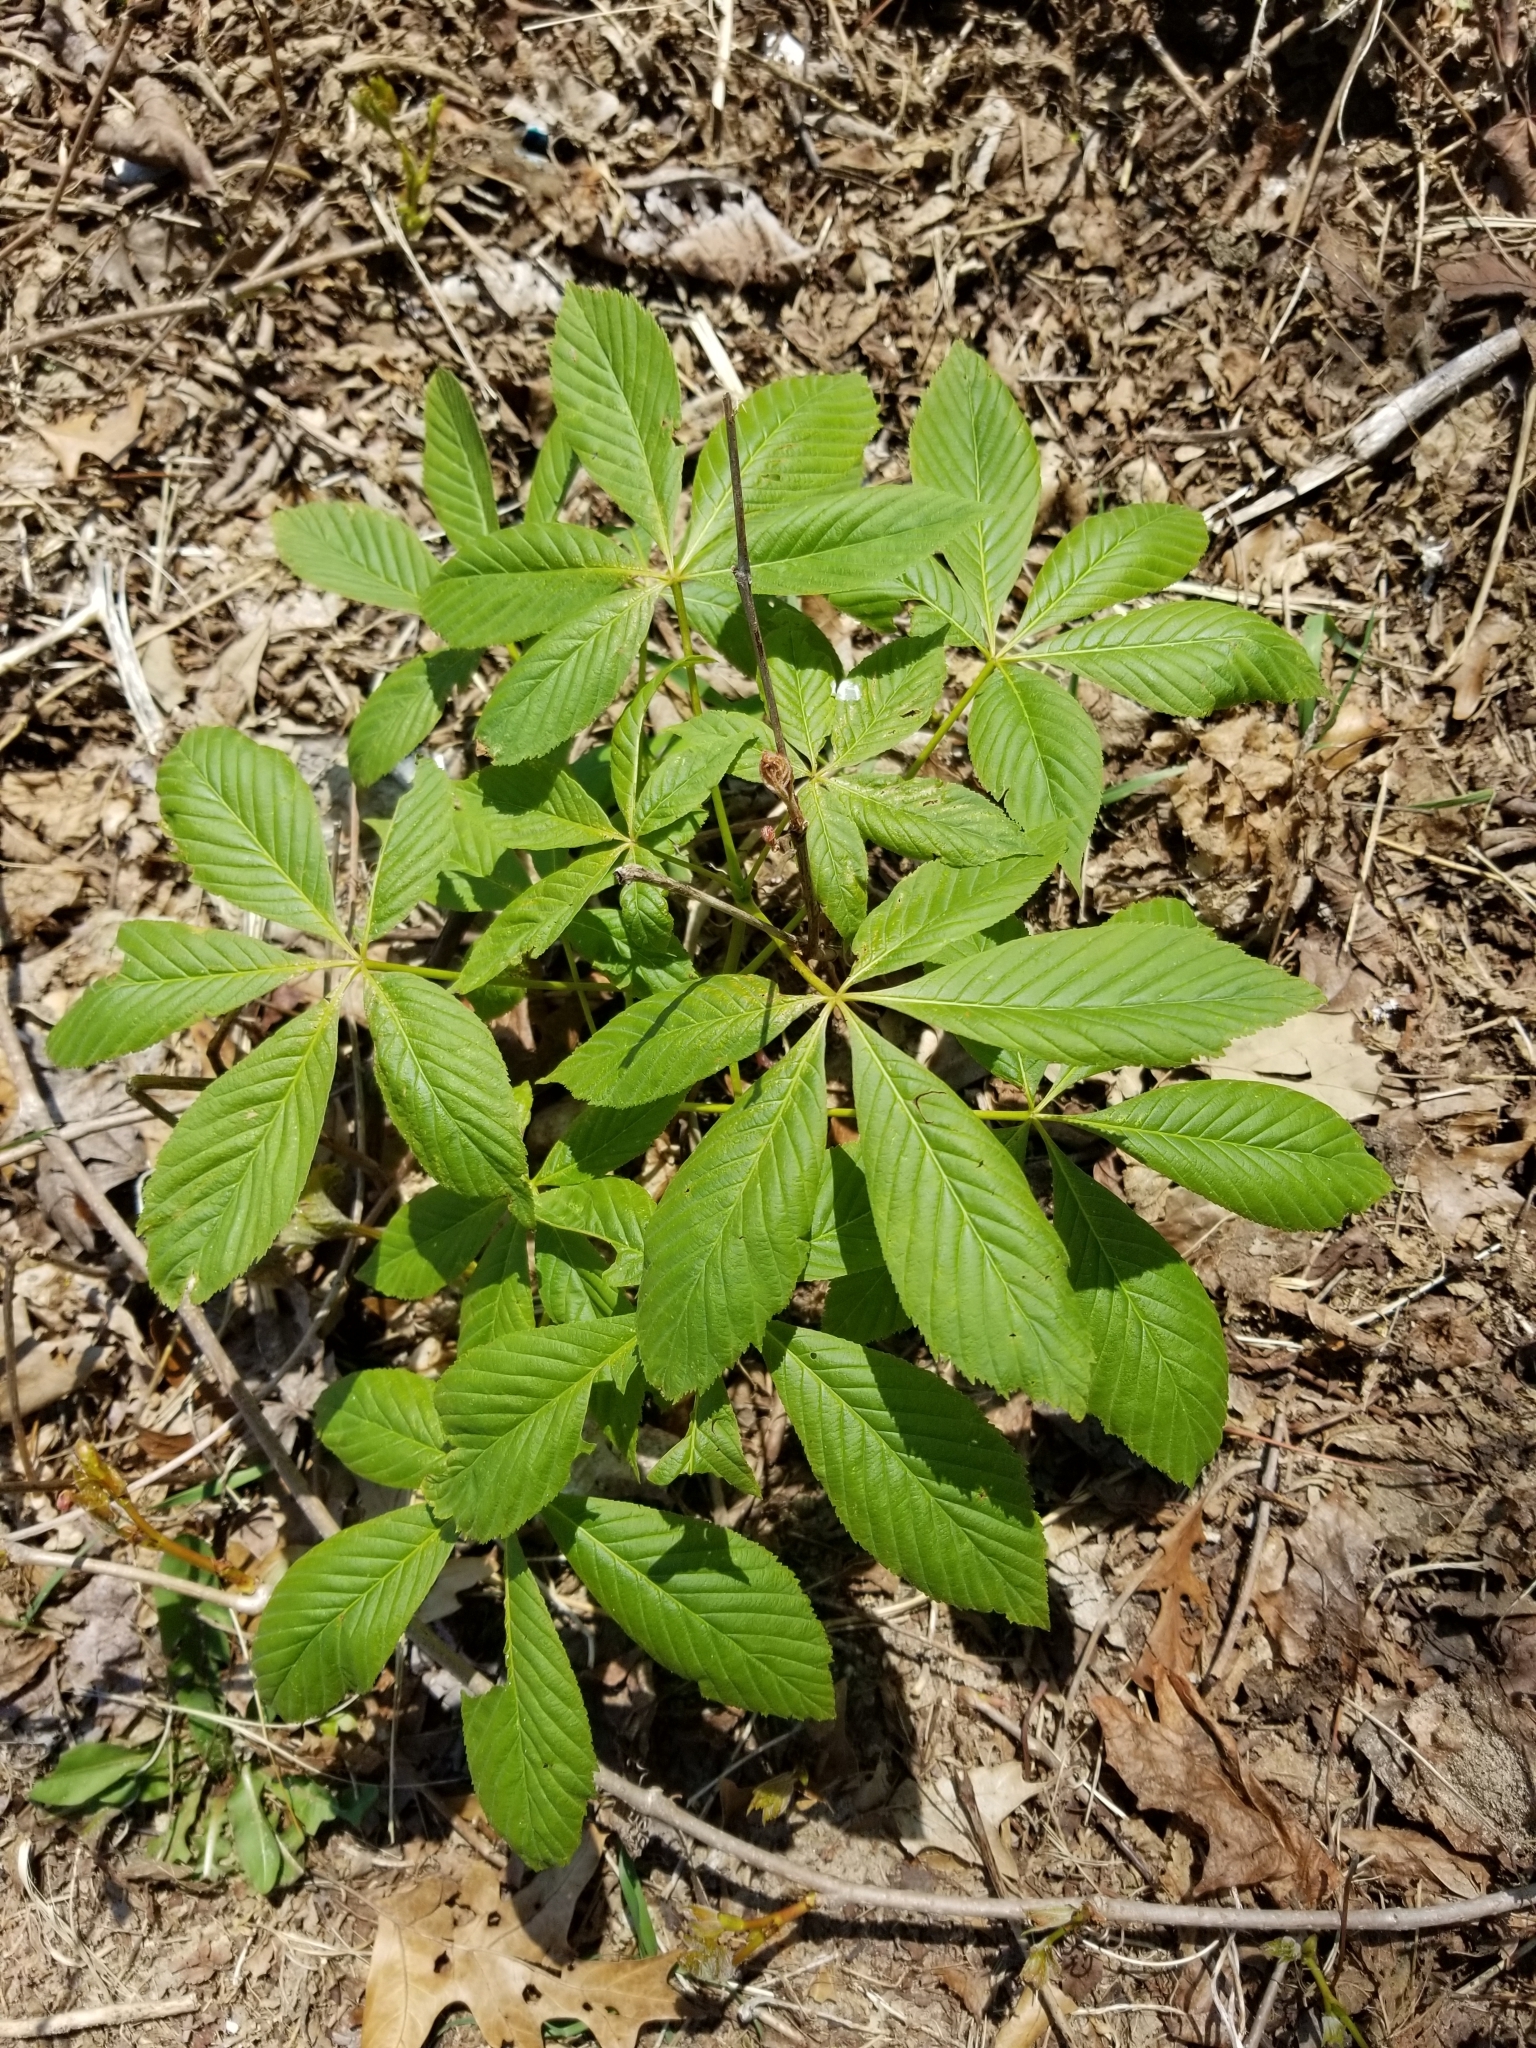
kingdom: Plantae
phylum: Tracheophyta
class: Magnoliopsida
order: Sapindales
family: Sapindaceae
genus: Aesculus
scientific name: Aesculus glabra
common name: Ohio buckeye
